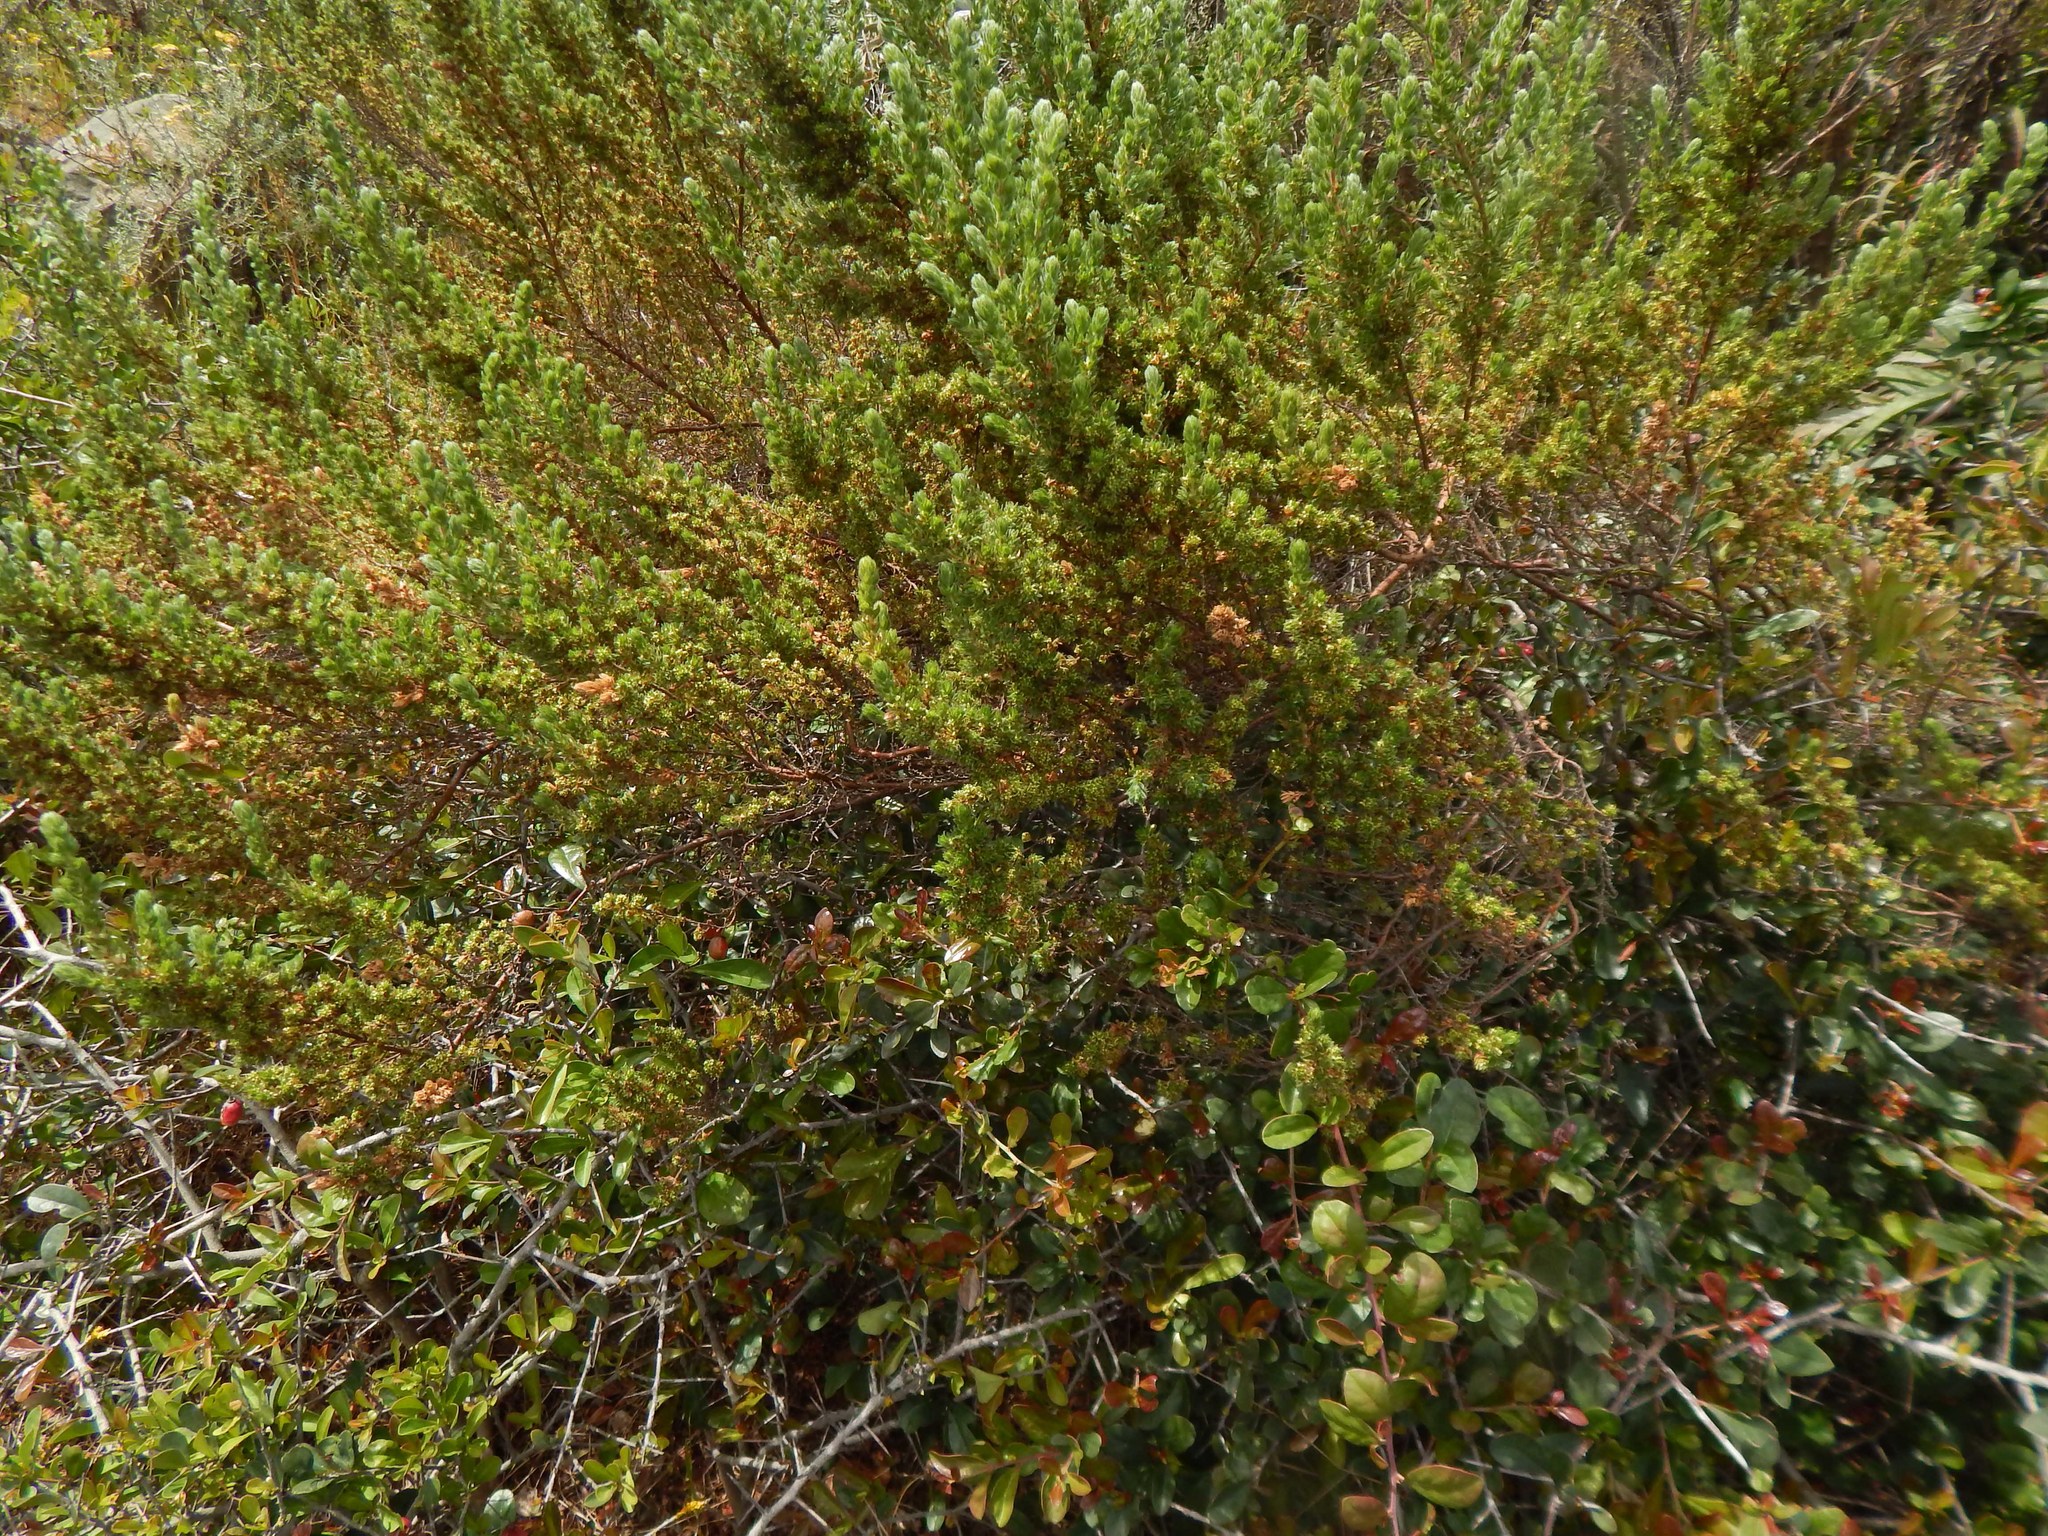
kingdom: Plantae
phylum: Tracheophyta
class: Magnoliopsida
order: Rosales
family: Rosaceae
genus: Cliffortia
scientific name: Cliffortia polygonifolia
